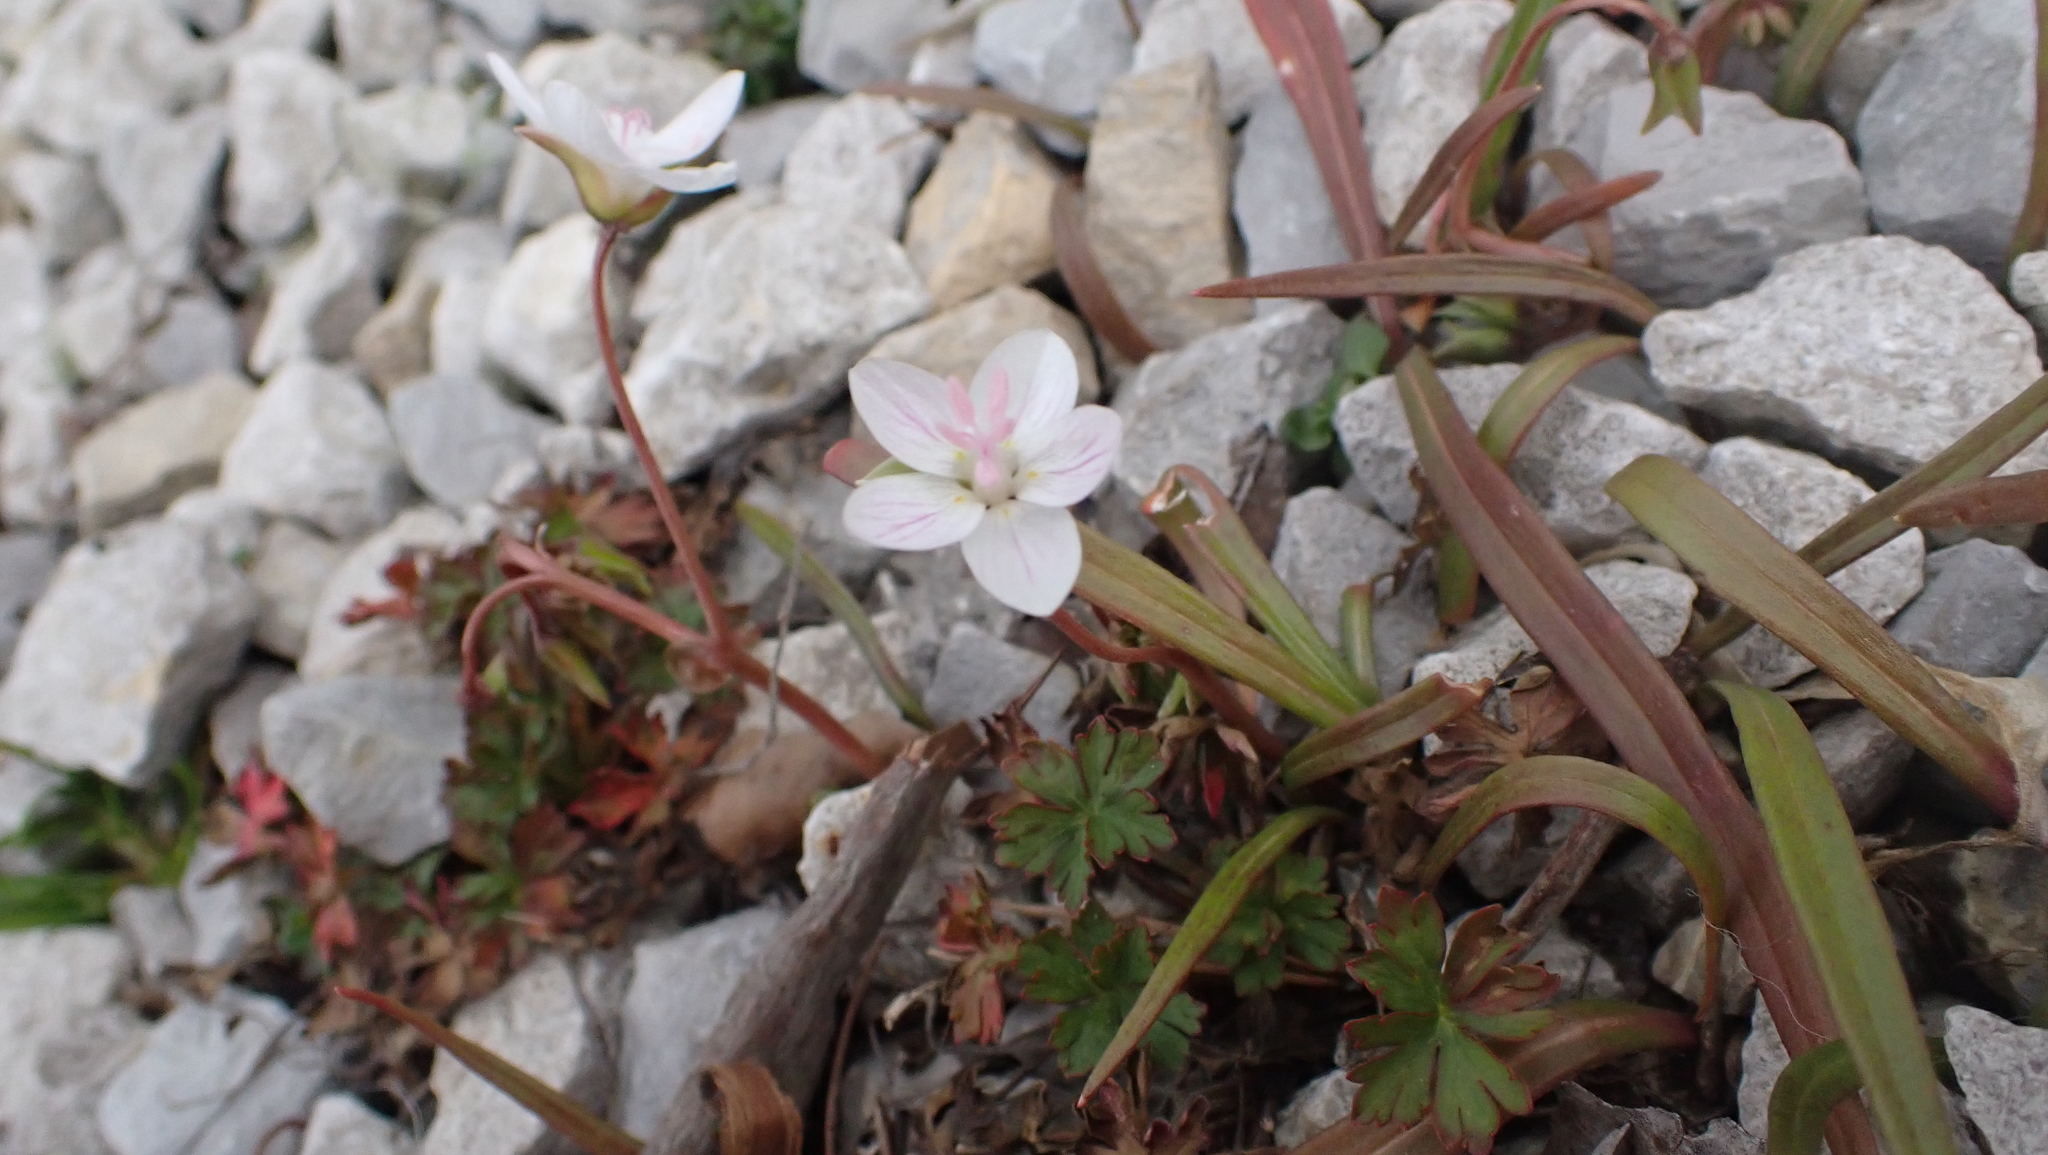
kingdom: Plantae
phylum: Tracheophyta
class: Magnoliopsida
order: Caryophyllales
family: Montiaceae
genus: Claytonia
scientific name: Claytonia virginica
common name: Virginia springbeauty
